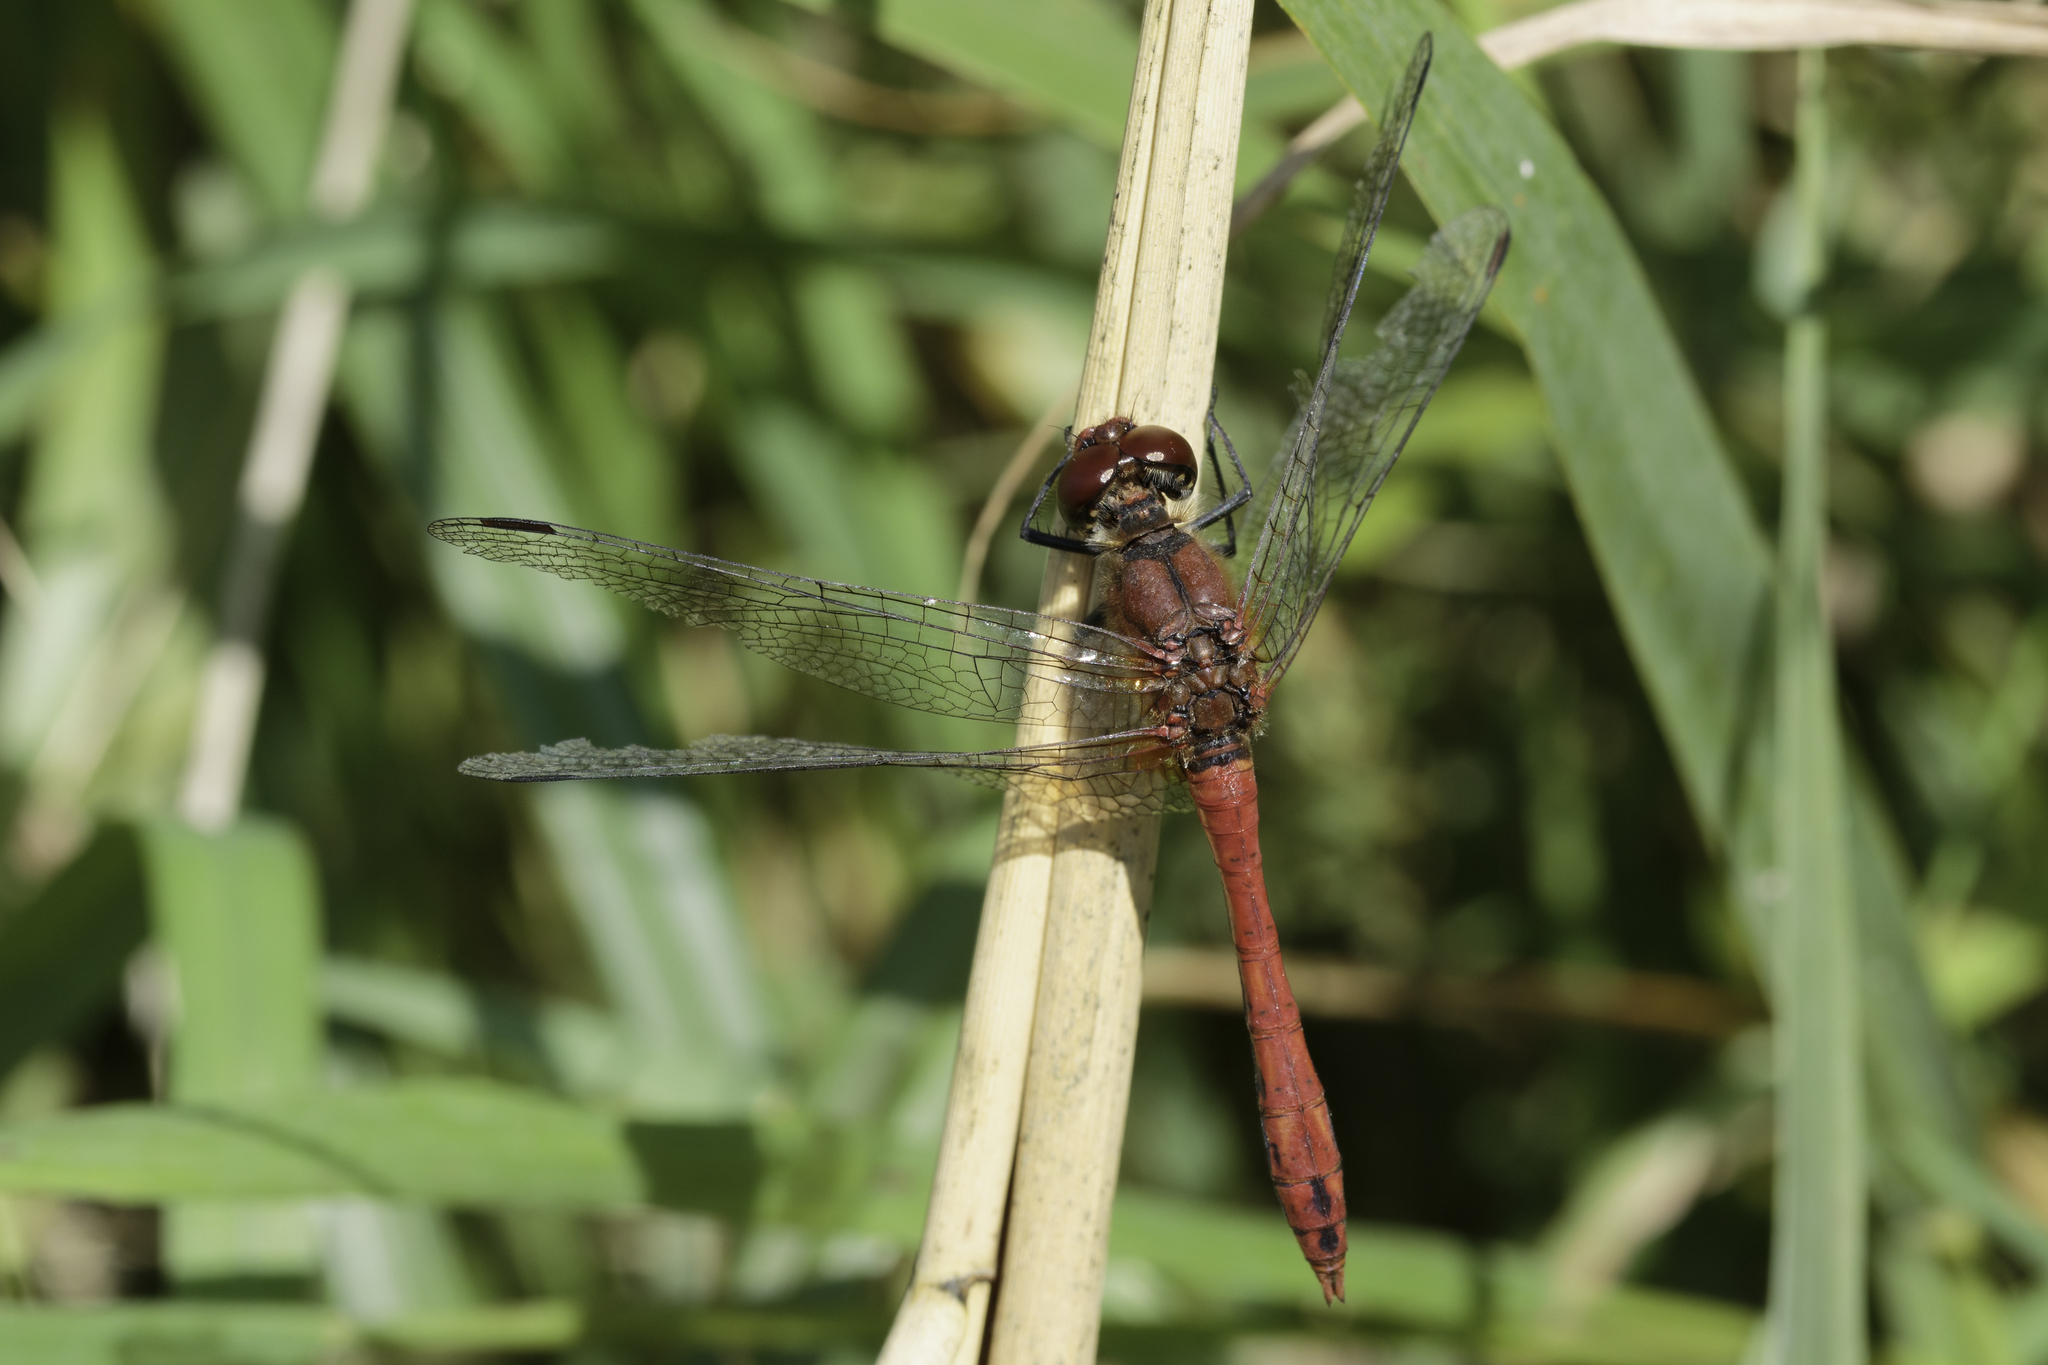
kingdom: Animalia
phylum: Arthropoda
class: Insecta
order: Odonata
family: Libellulidae
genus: Sympetrum
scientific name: Sympetrum sanguineum
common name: Ruddy darter
